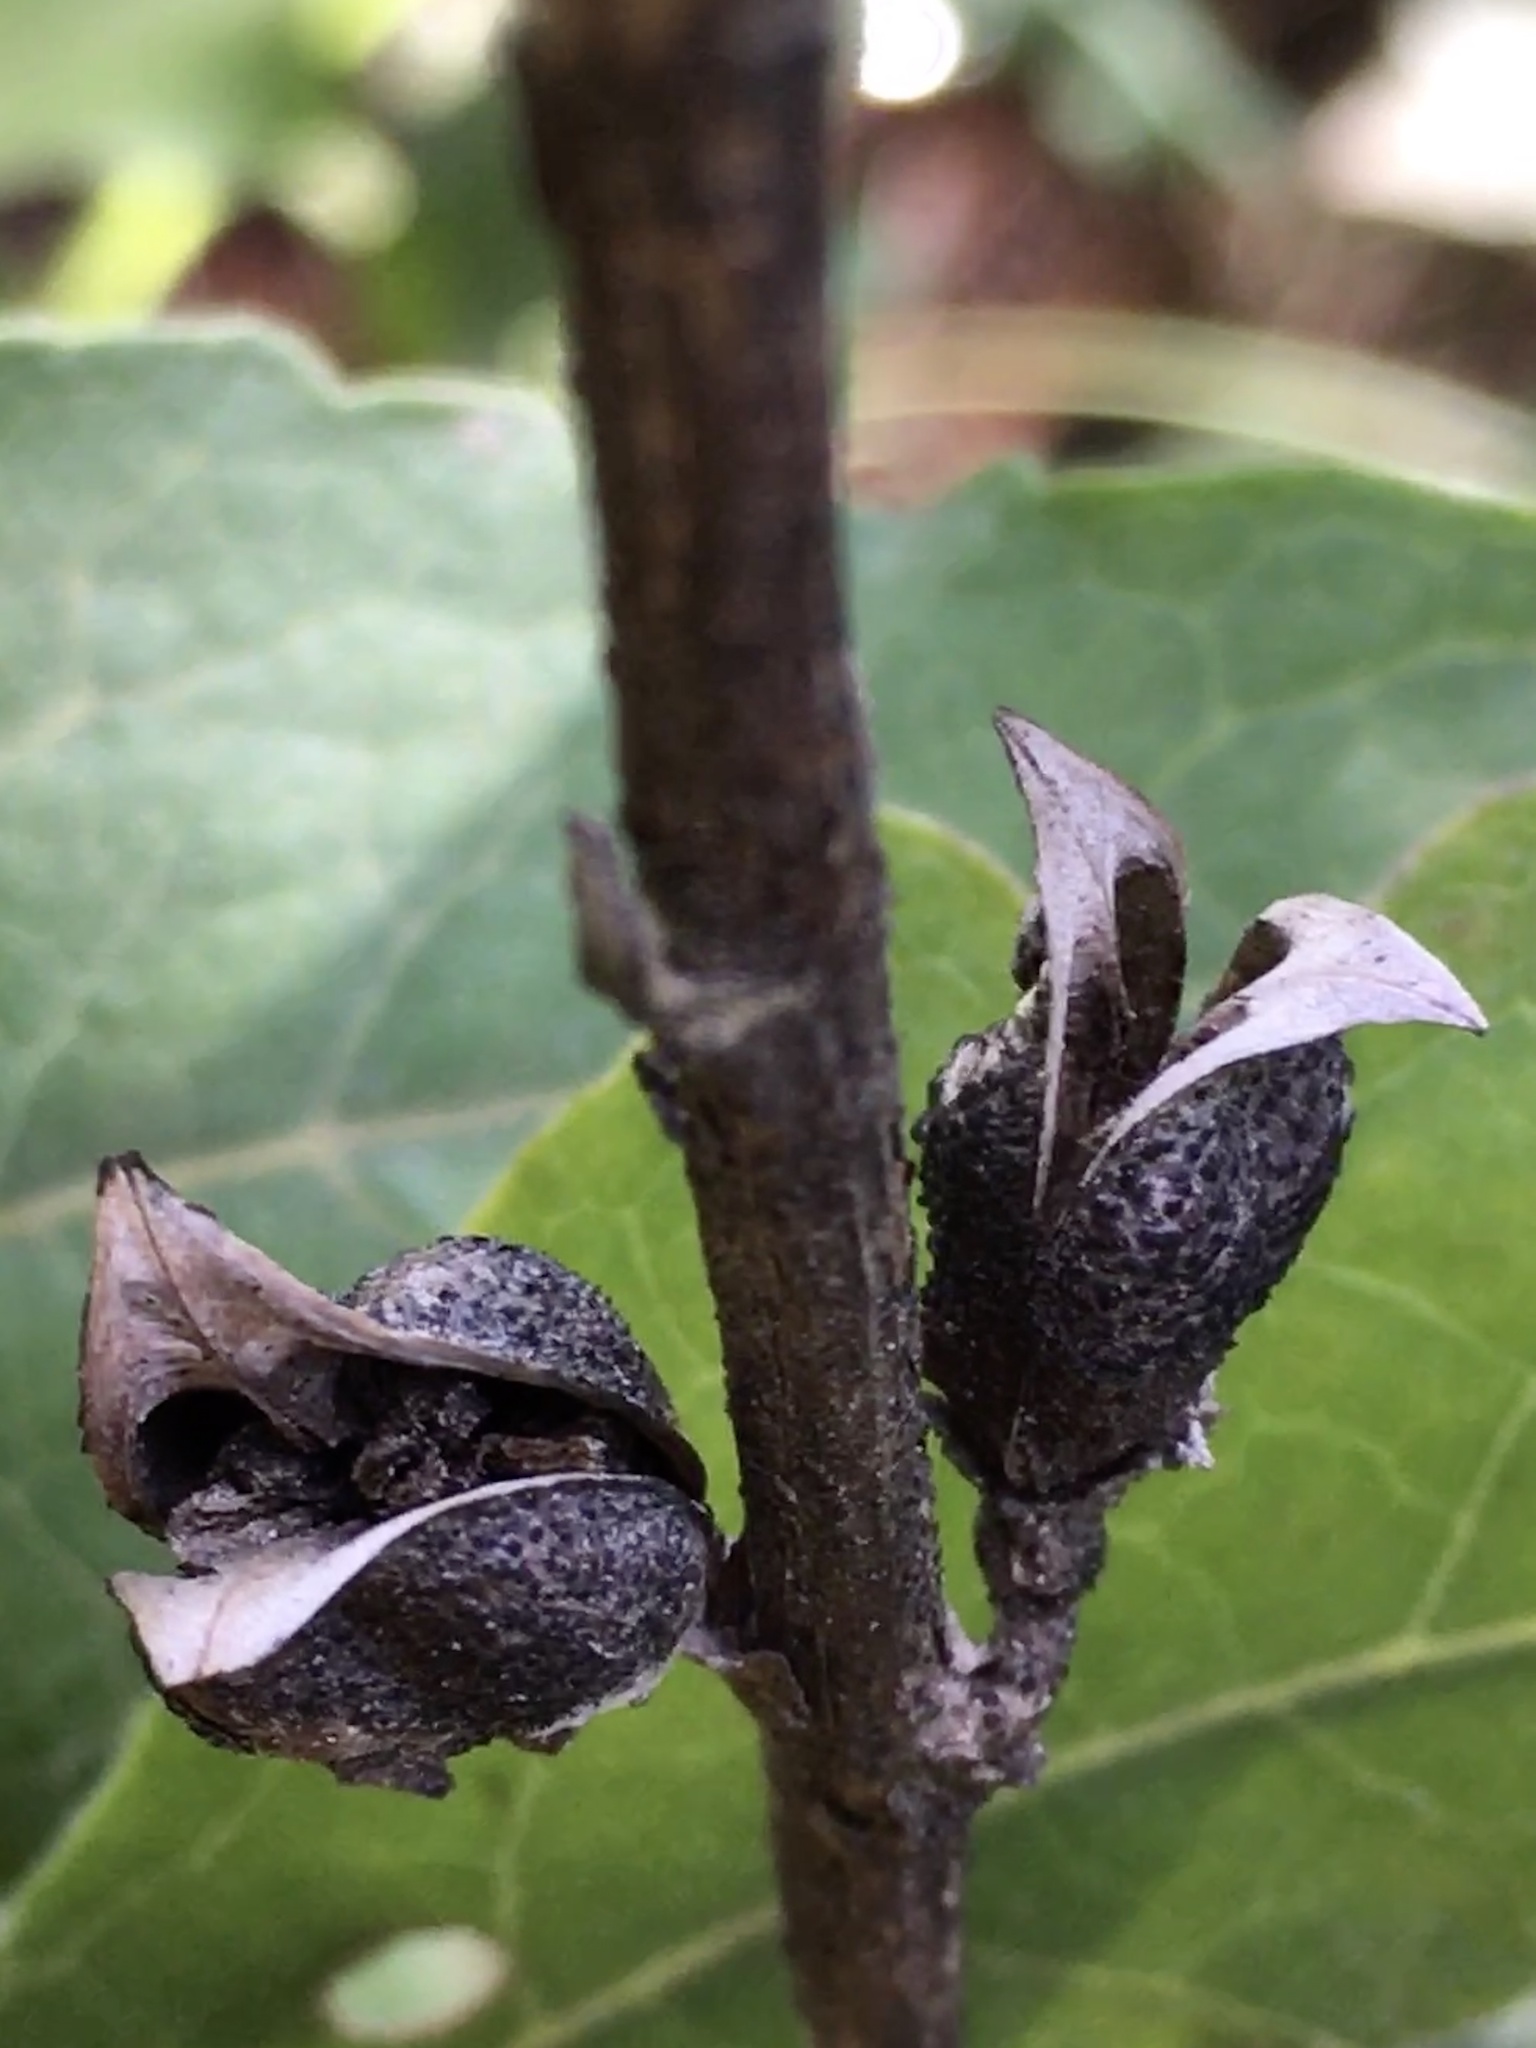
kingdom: Plantae
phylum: Tracheophyta
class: Magnoliopsida
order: Lamiales
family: Orobanchaceae
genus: Aureolaria
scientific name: Aureolaria virginica
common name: Downy false foxglove
